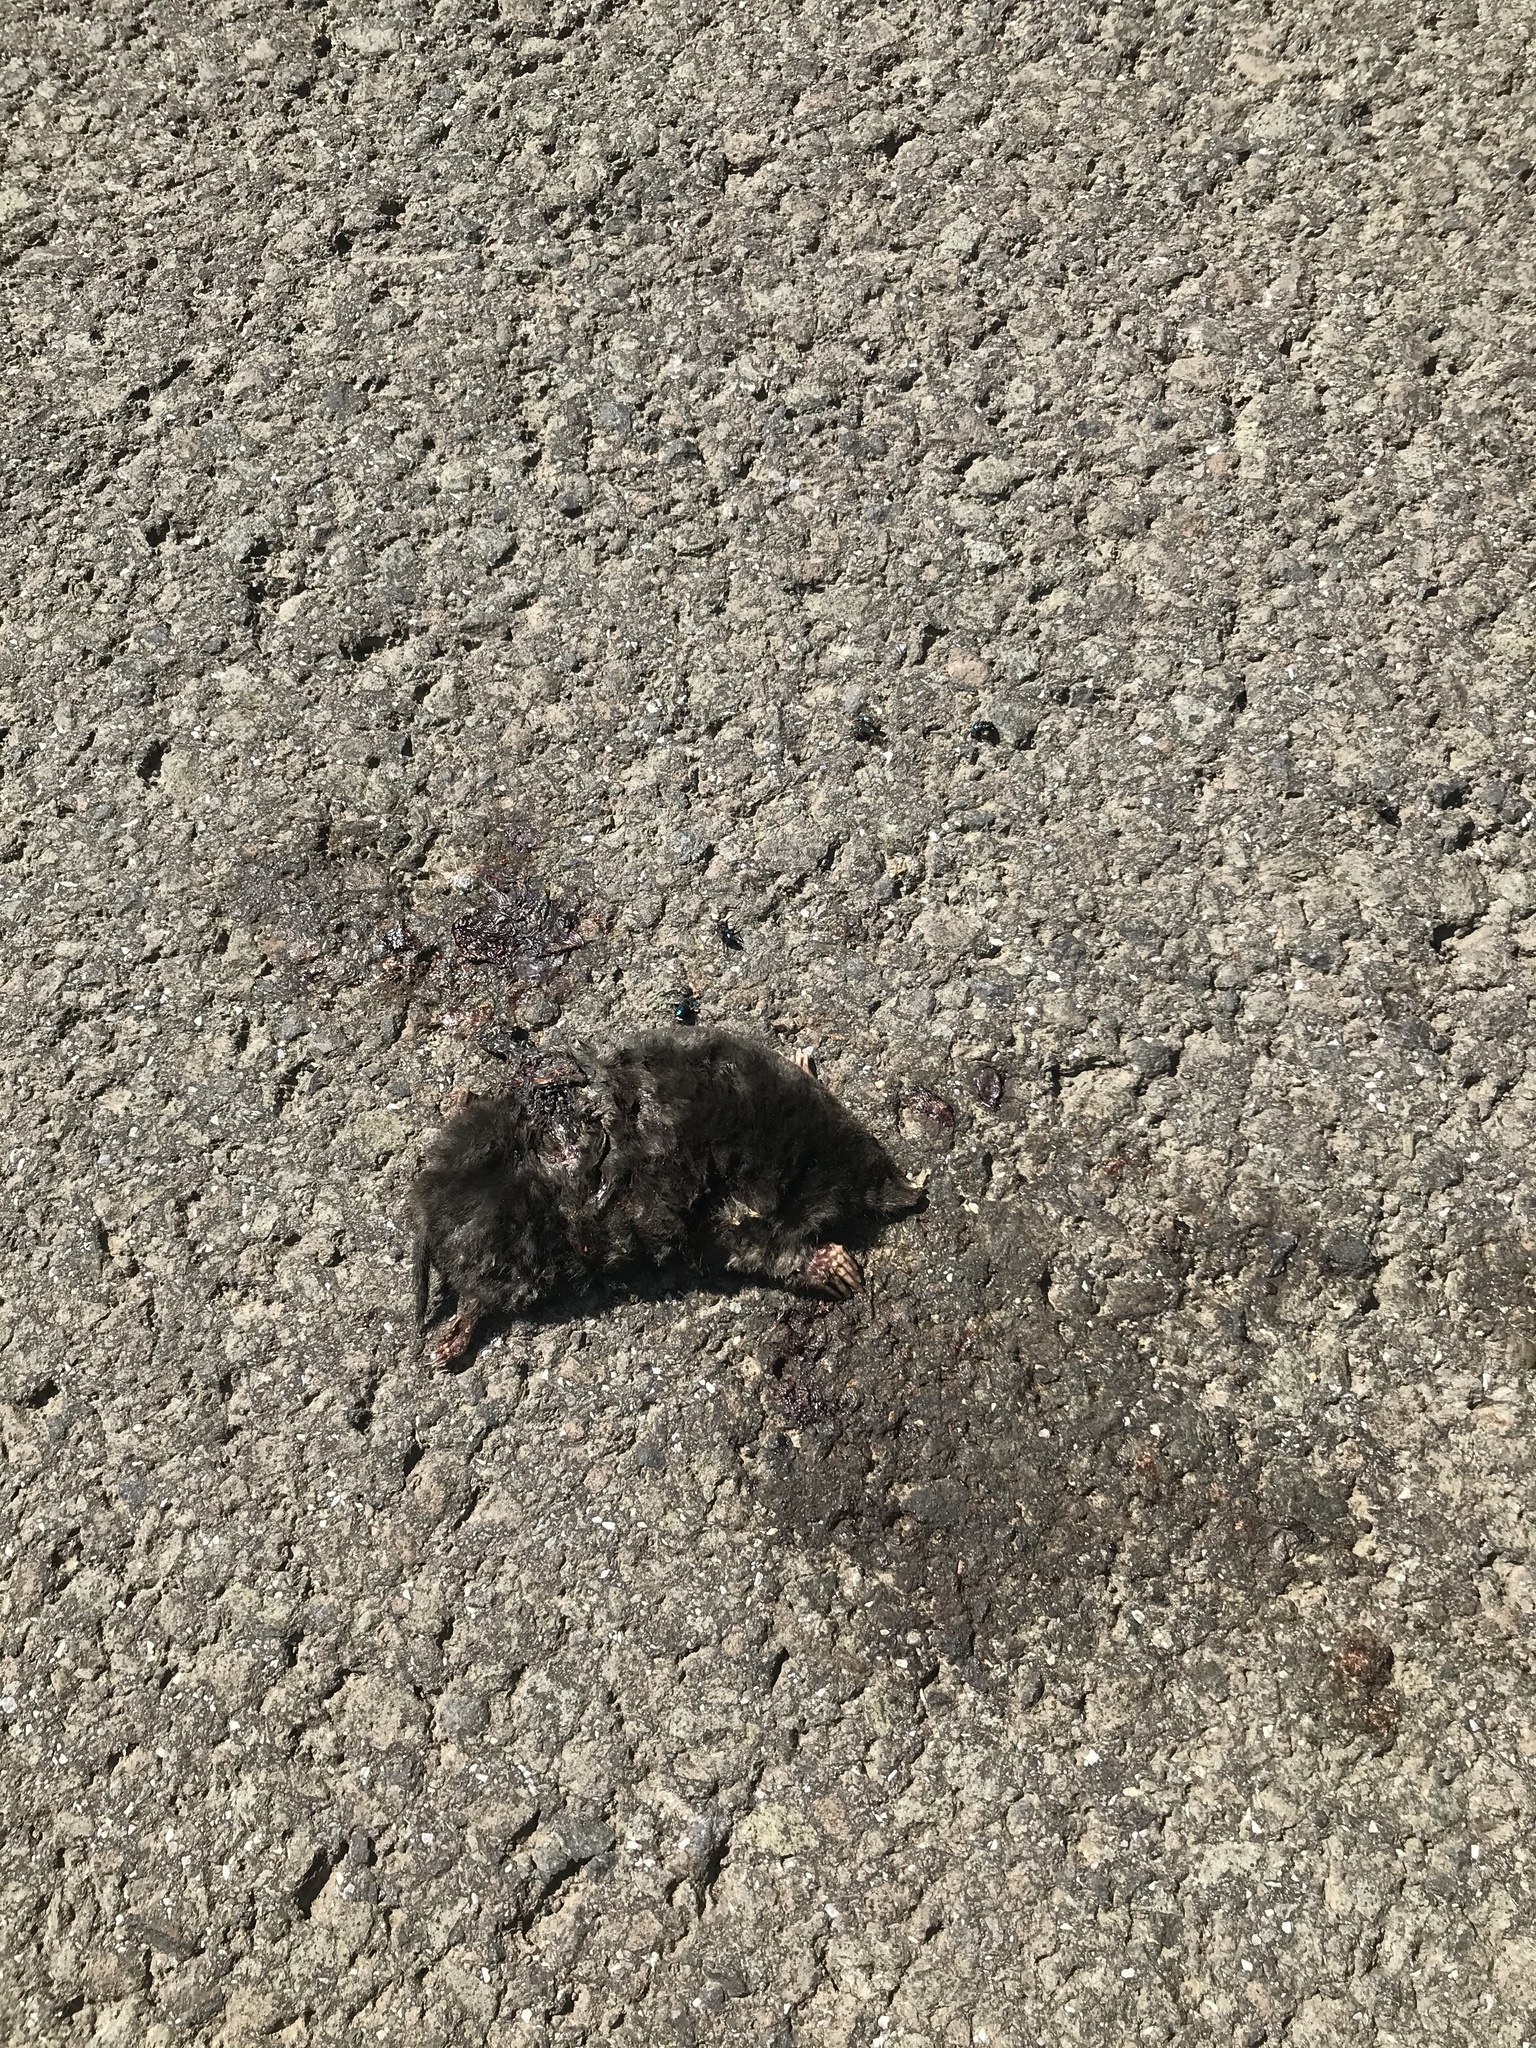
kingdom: Animalia
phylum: Chordata
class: Mammalia
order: Soricomorpha
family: Talpidae
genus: Talpa
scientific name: Talpa europaea
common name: European mole
